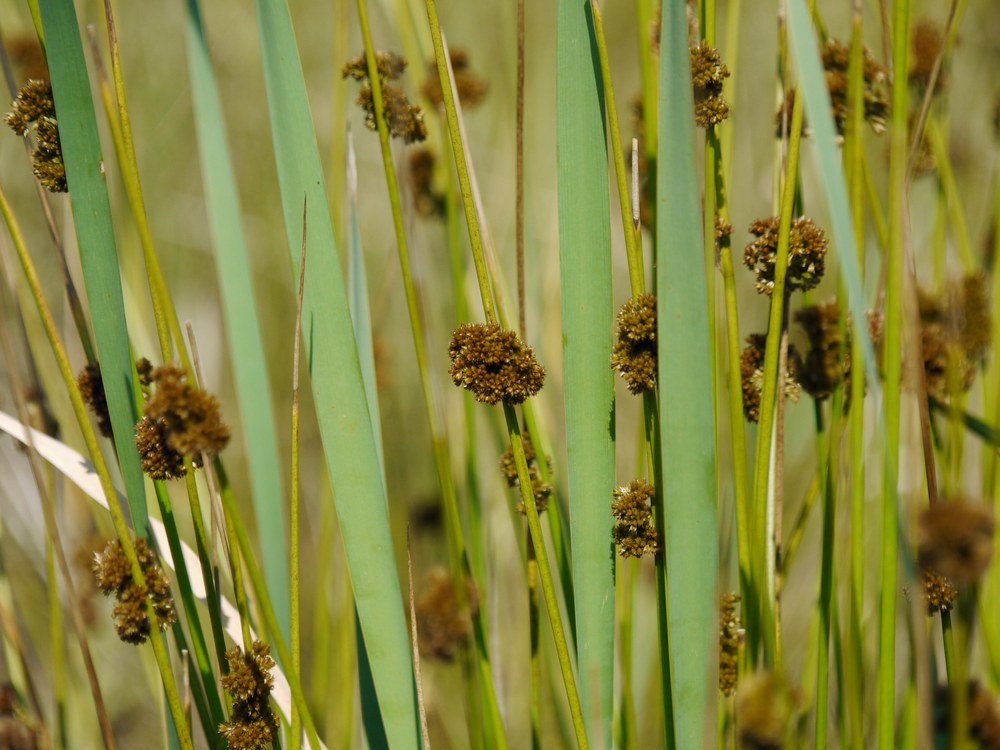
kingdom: Plantae
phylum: Tracheophyta
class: Liliopsida
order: Poales
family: Juncaceae
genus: Juncus
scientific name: Juncus effusus
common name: Soft rush
